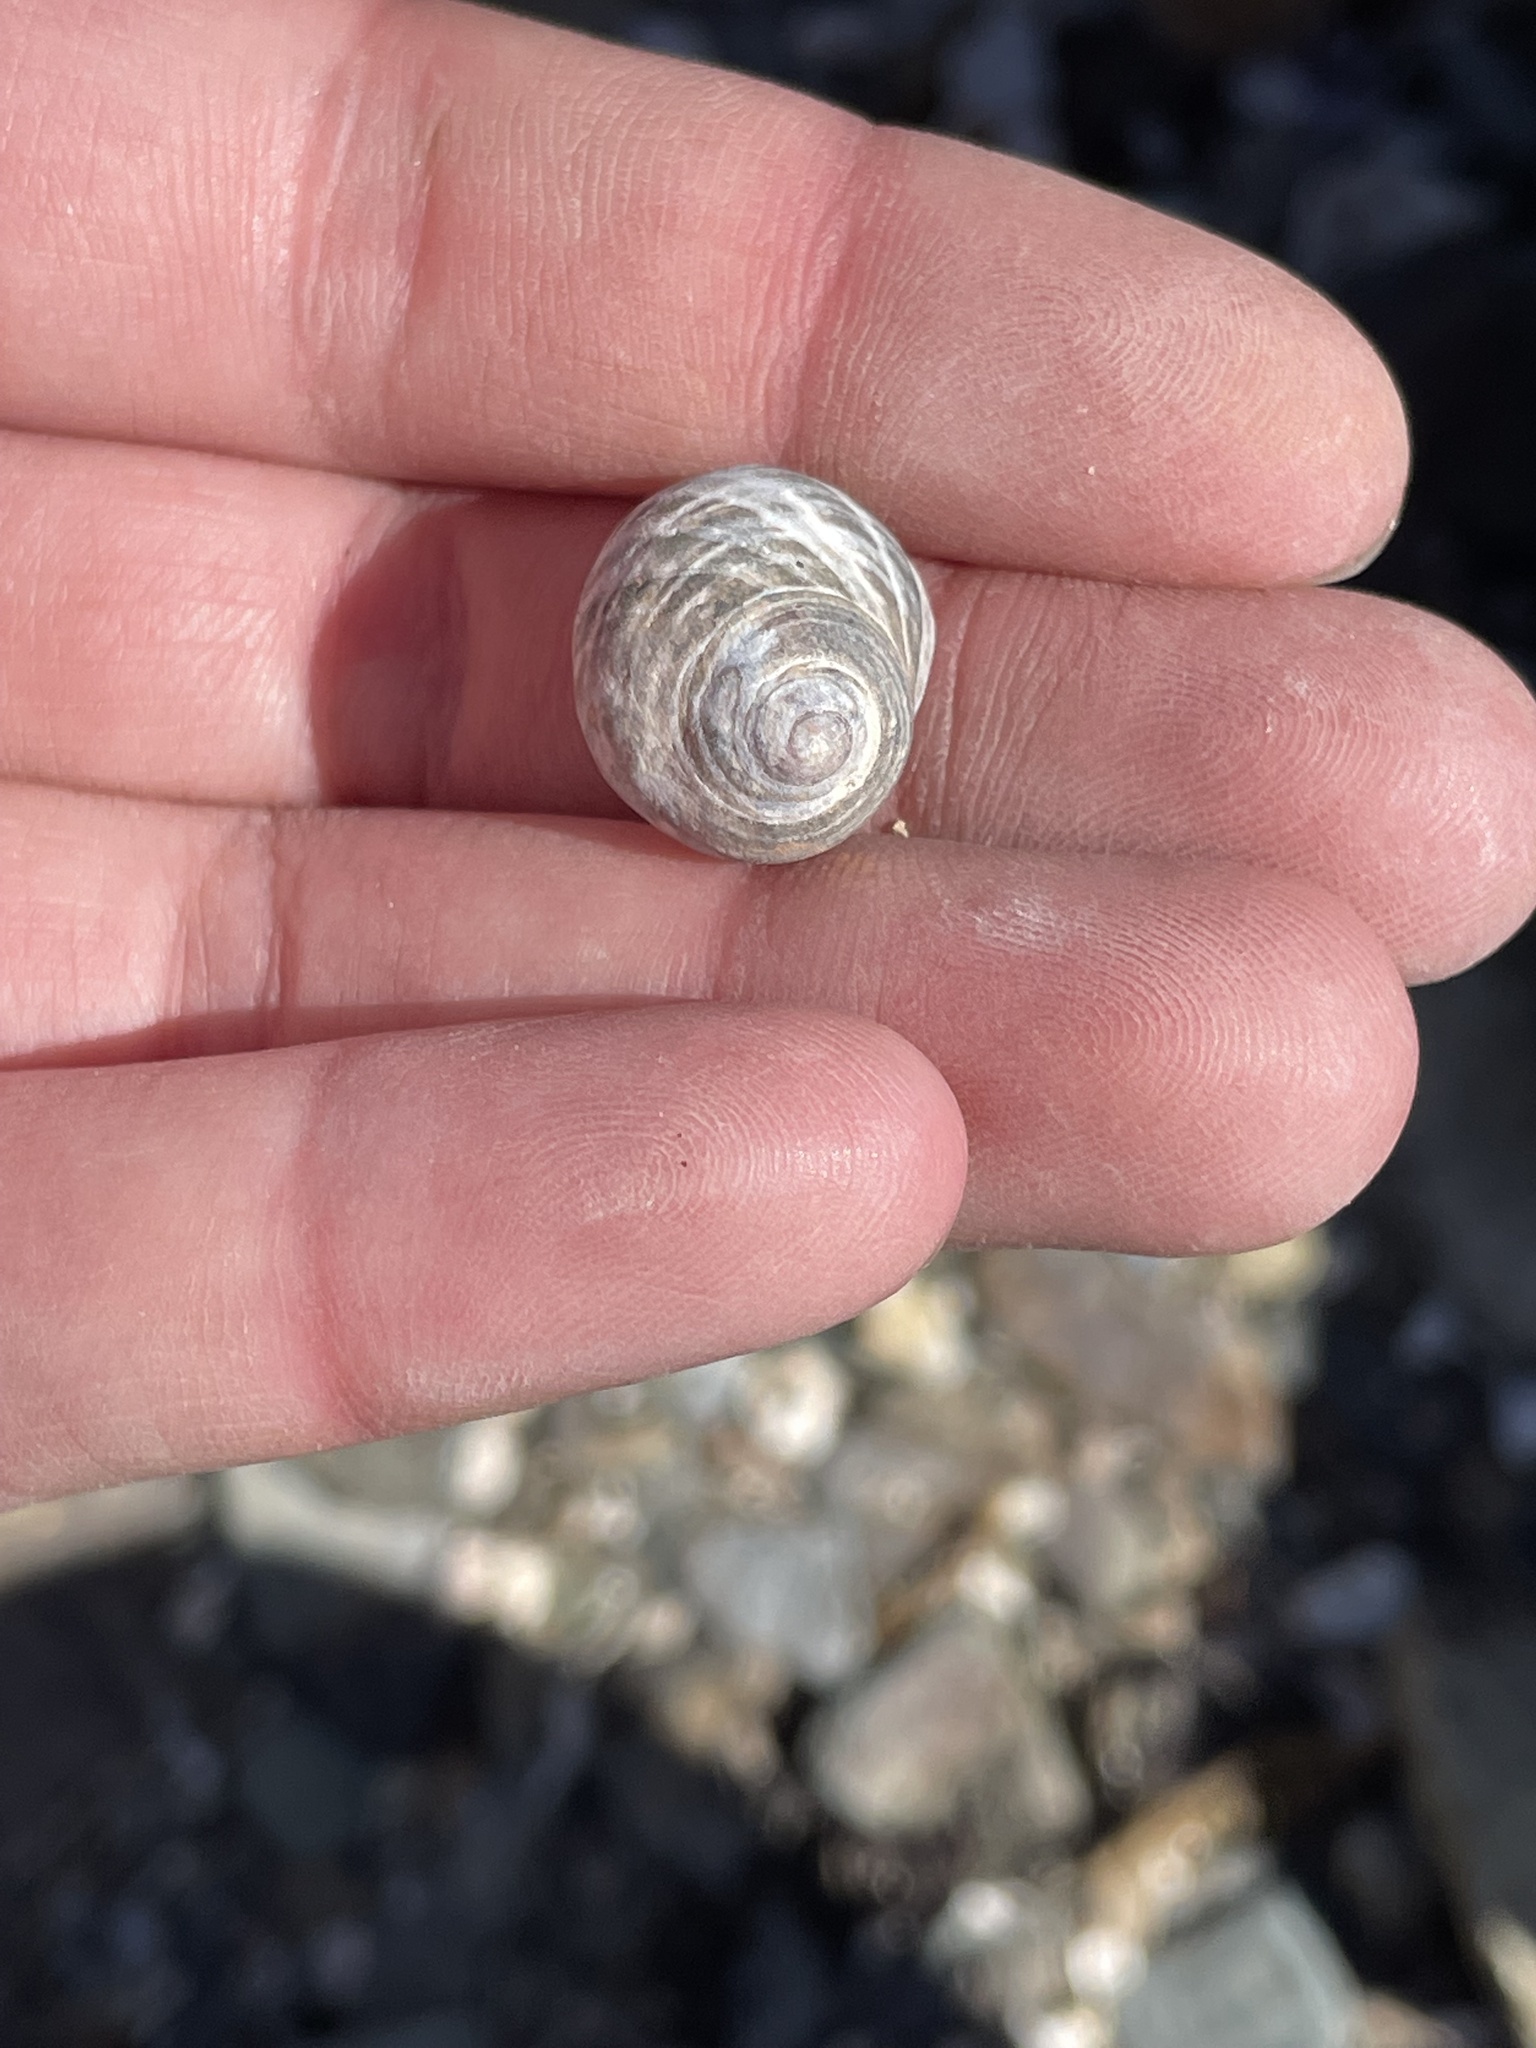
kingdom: Animalia
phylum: Mollusca
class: Gastropoda
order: Littorinimorpha
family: Littorinidae
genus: Littorina
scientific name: Littorina littorea
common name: Common periwinkle
